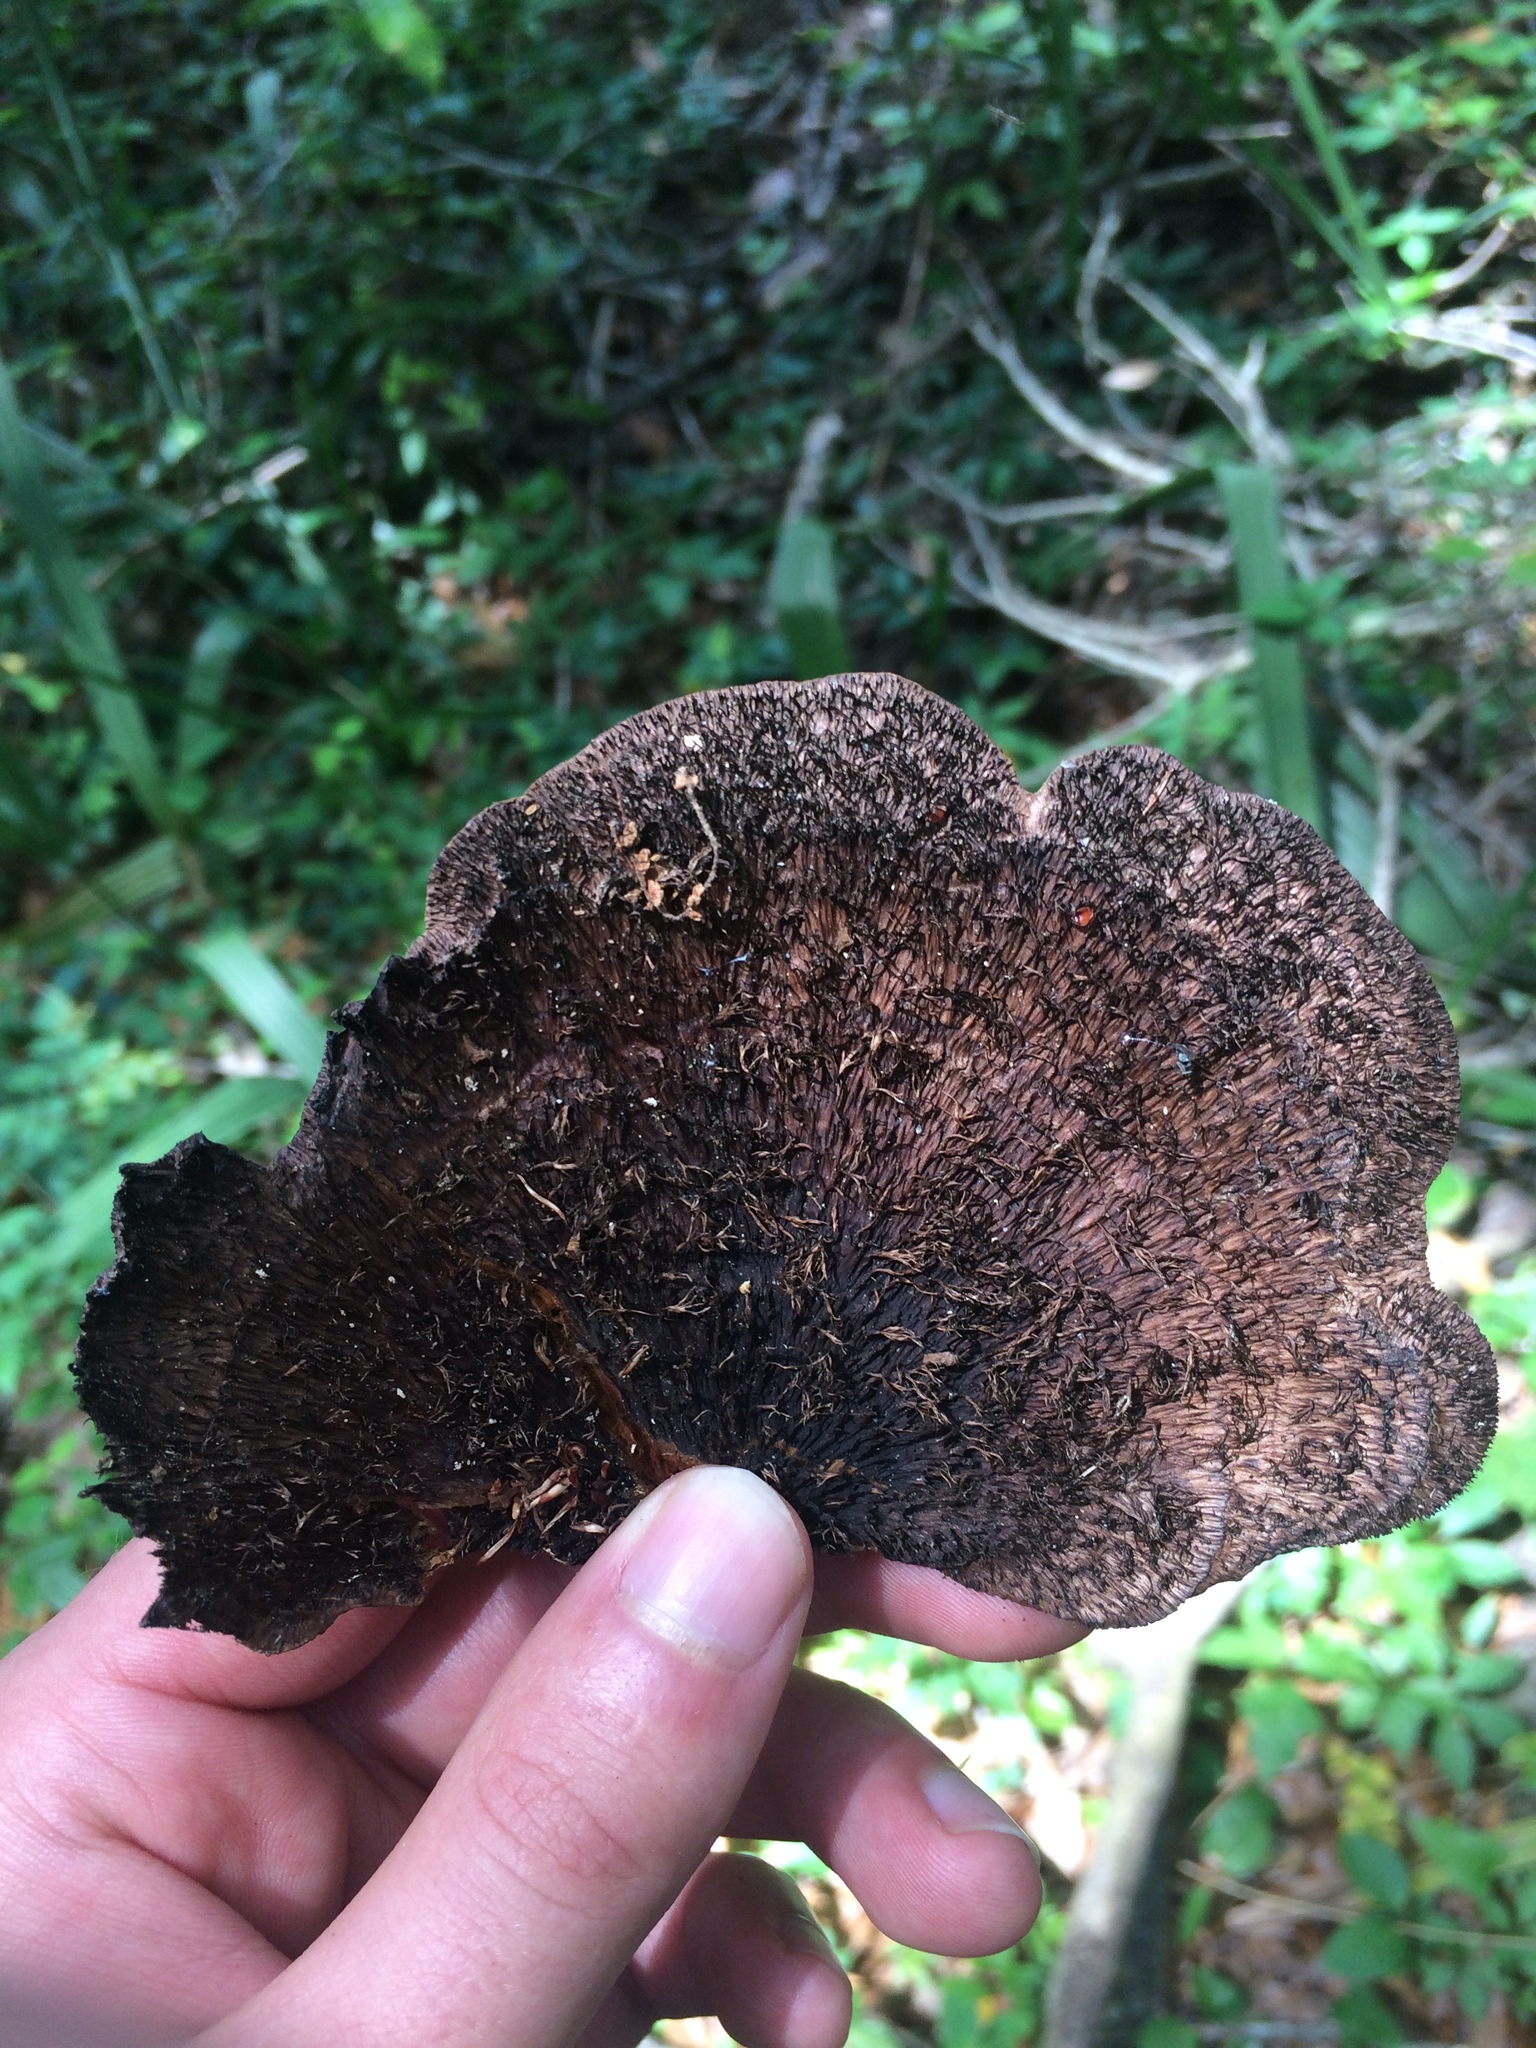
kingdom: Fungi
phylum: Basidiomycota
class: Agaricomycetes
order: Polyporales
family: Cerrenaceae
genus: Cerrena
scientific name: Cerrena hydnoides
